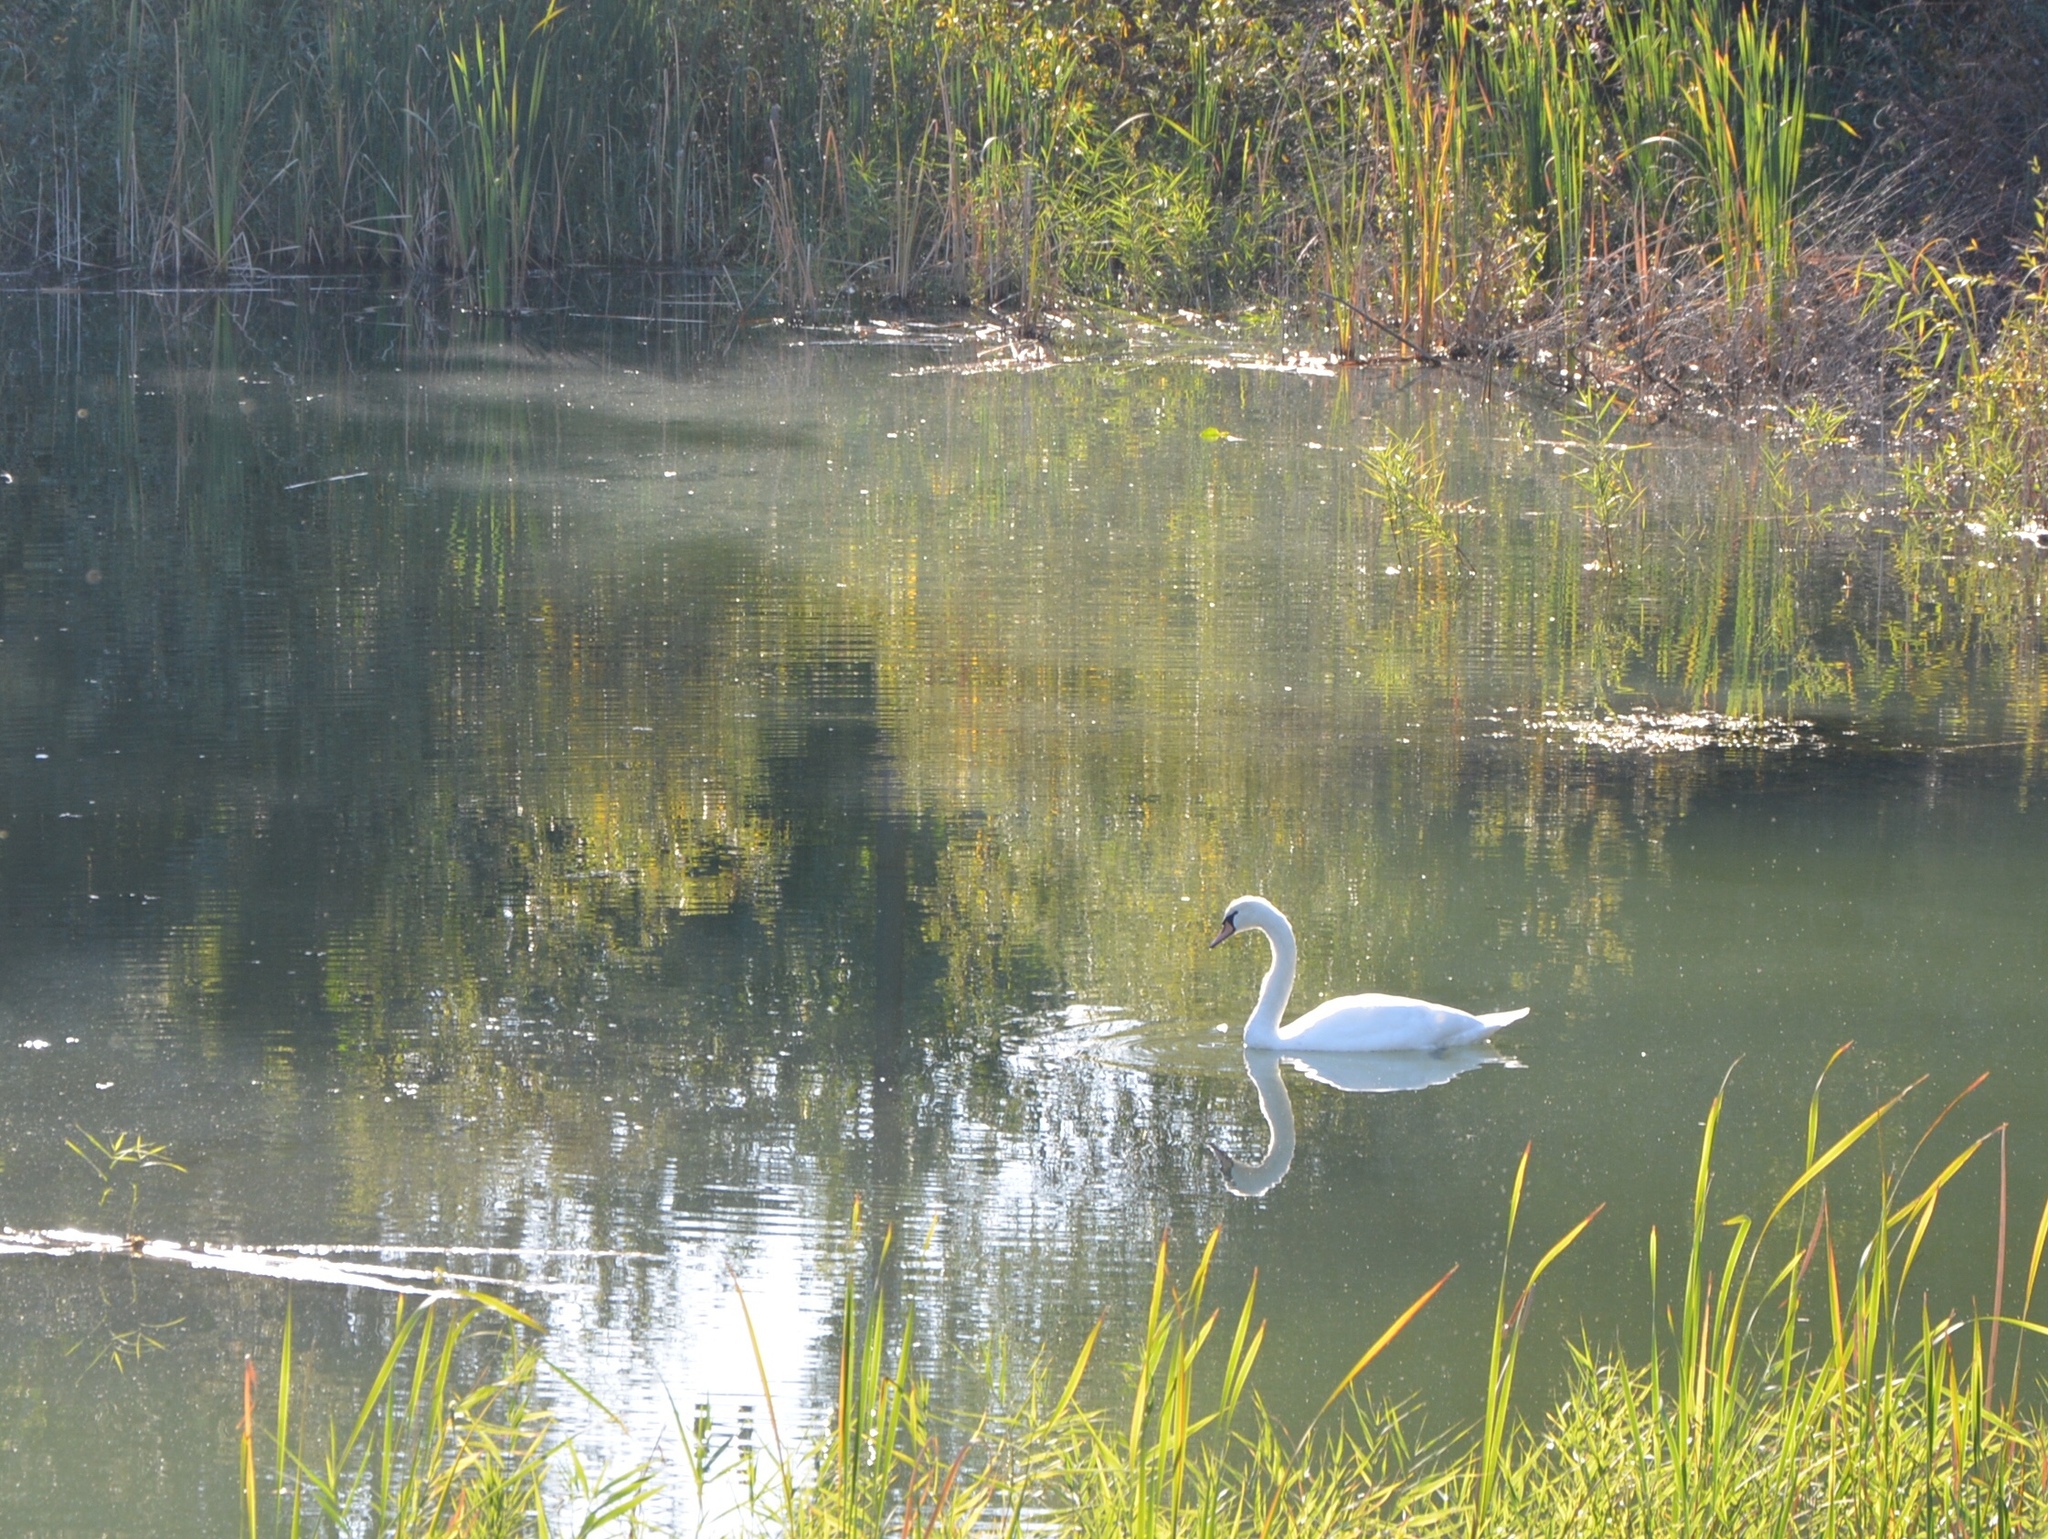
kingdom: Animalia
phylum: Chordata
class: Aves
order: Anseriformes
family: Anatidae
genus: Cygnus
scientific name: Cygnus olor
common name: Mute swan
